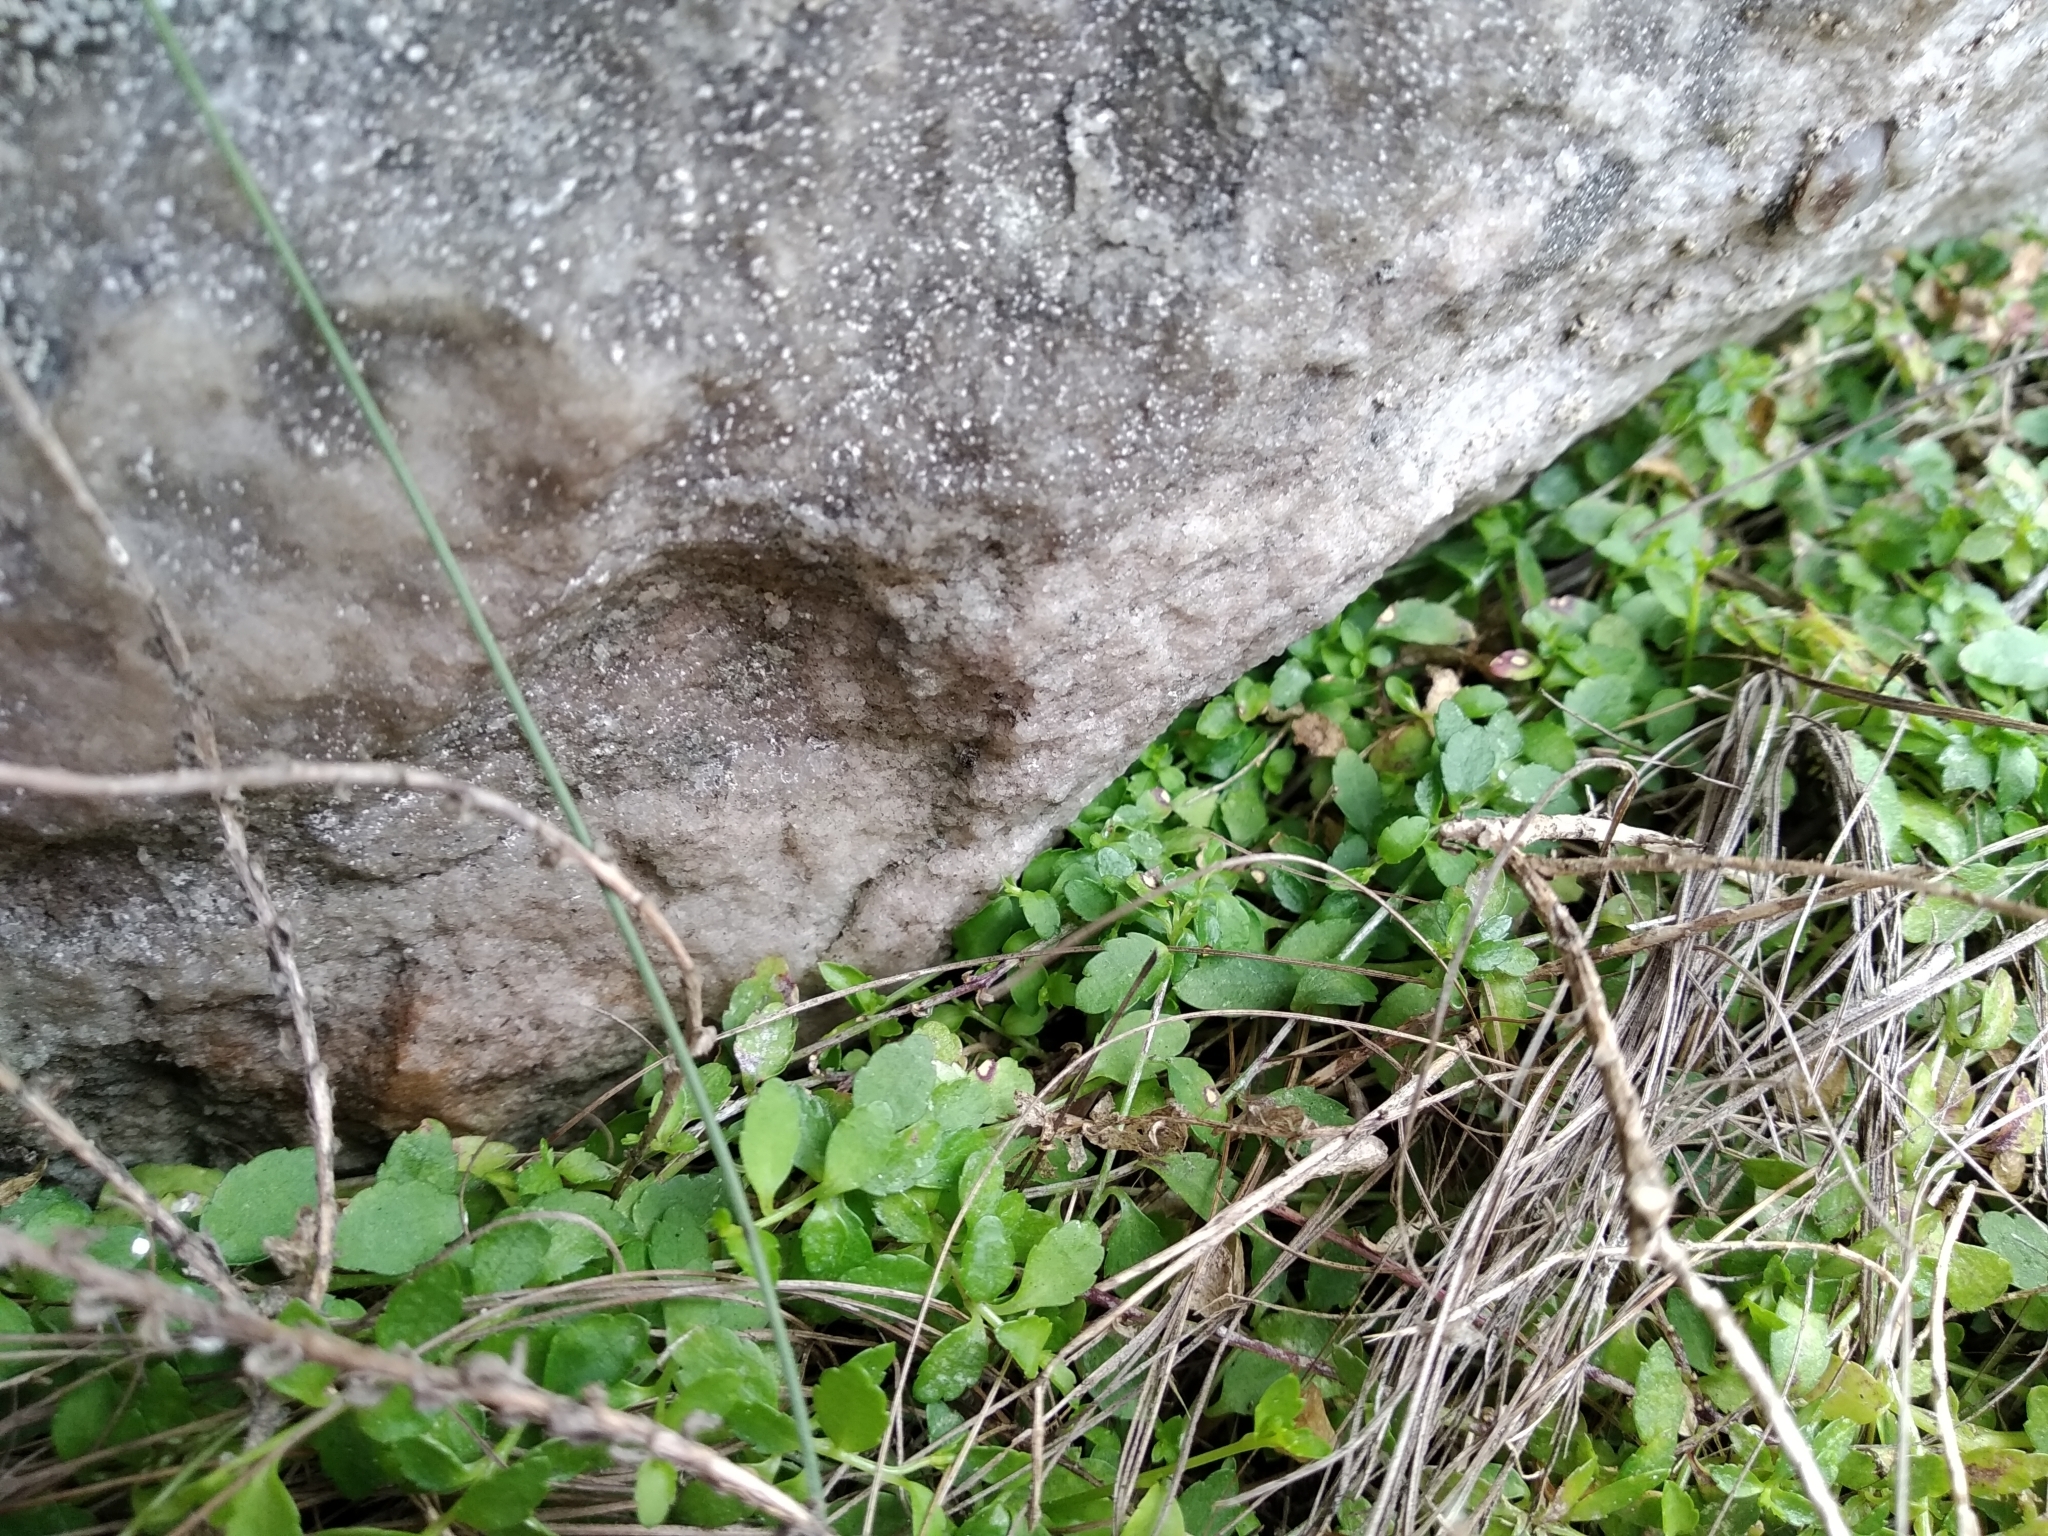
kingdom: Plantae
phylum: Tracheophyta
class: Magnoliopsida
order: Asterales
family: Campanulaceae
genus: Unigenes
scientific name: Unigenes humifusa
